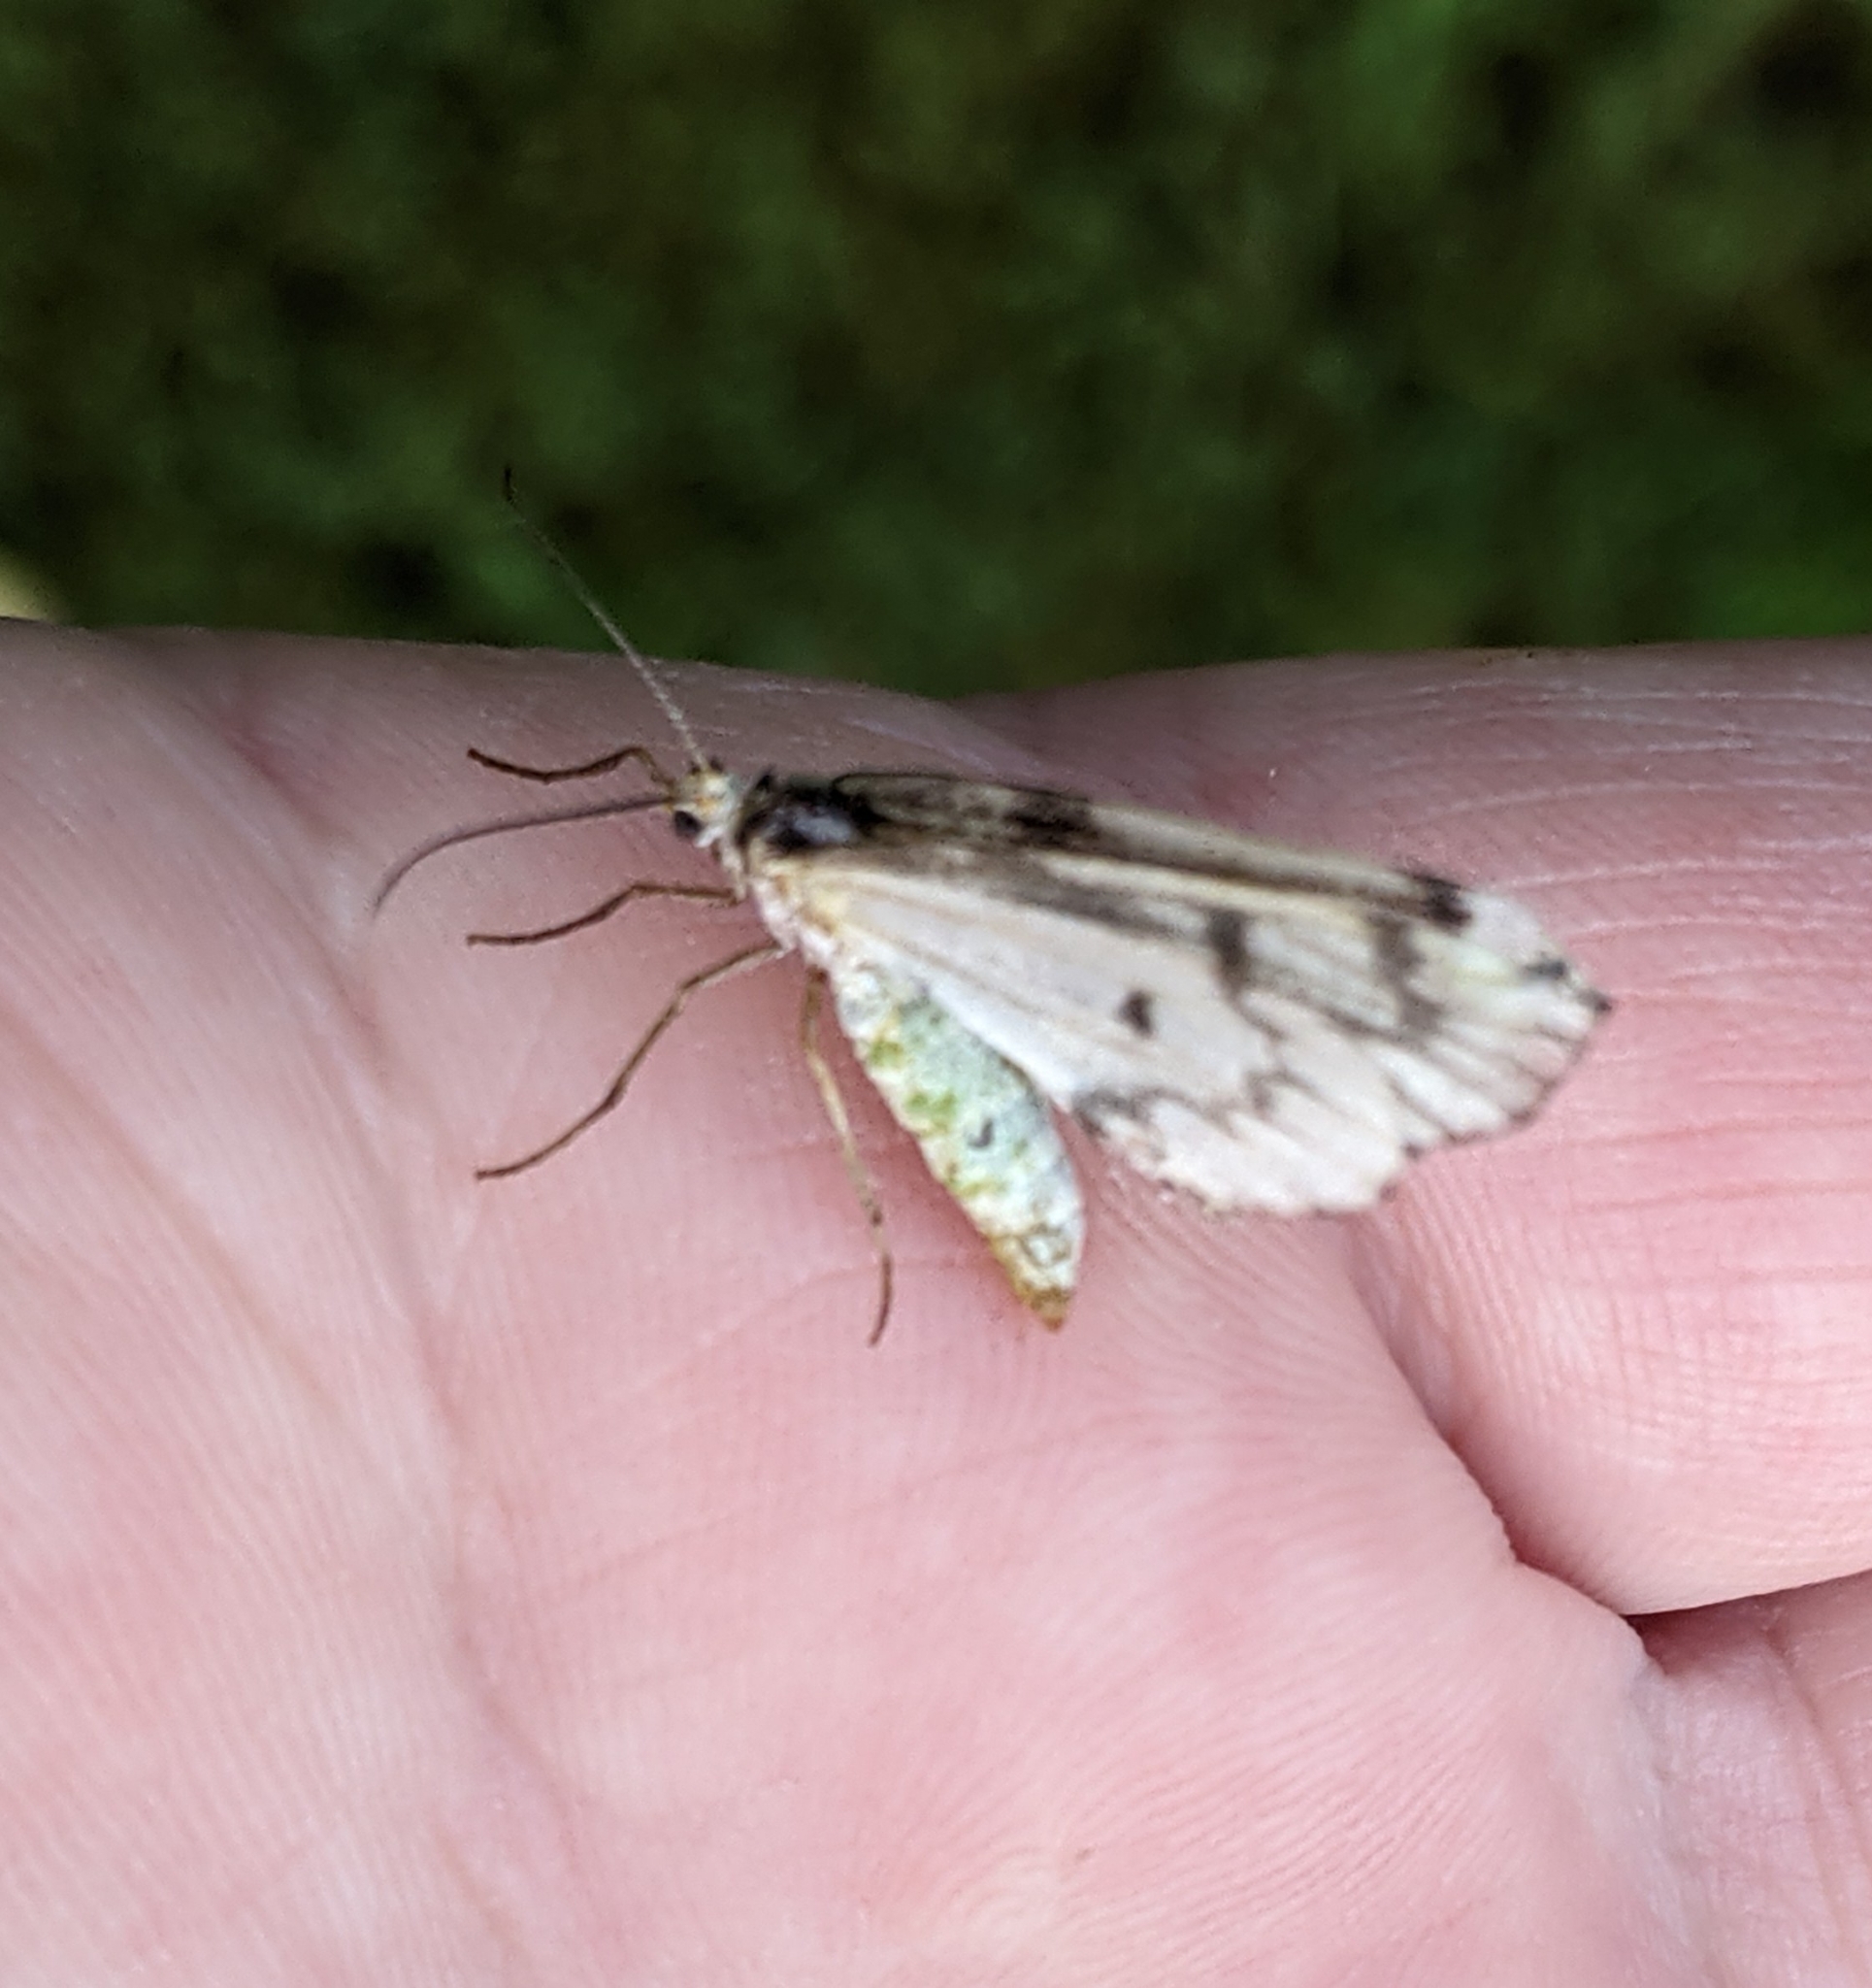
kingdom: Animalia
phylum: Arthropoda
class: Insecta
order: Lepidoptera
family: Geometridae
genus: Nepytia
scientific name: Nepytia phantasmaria
